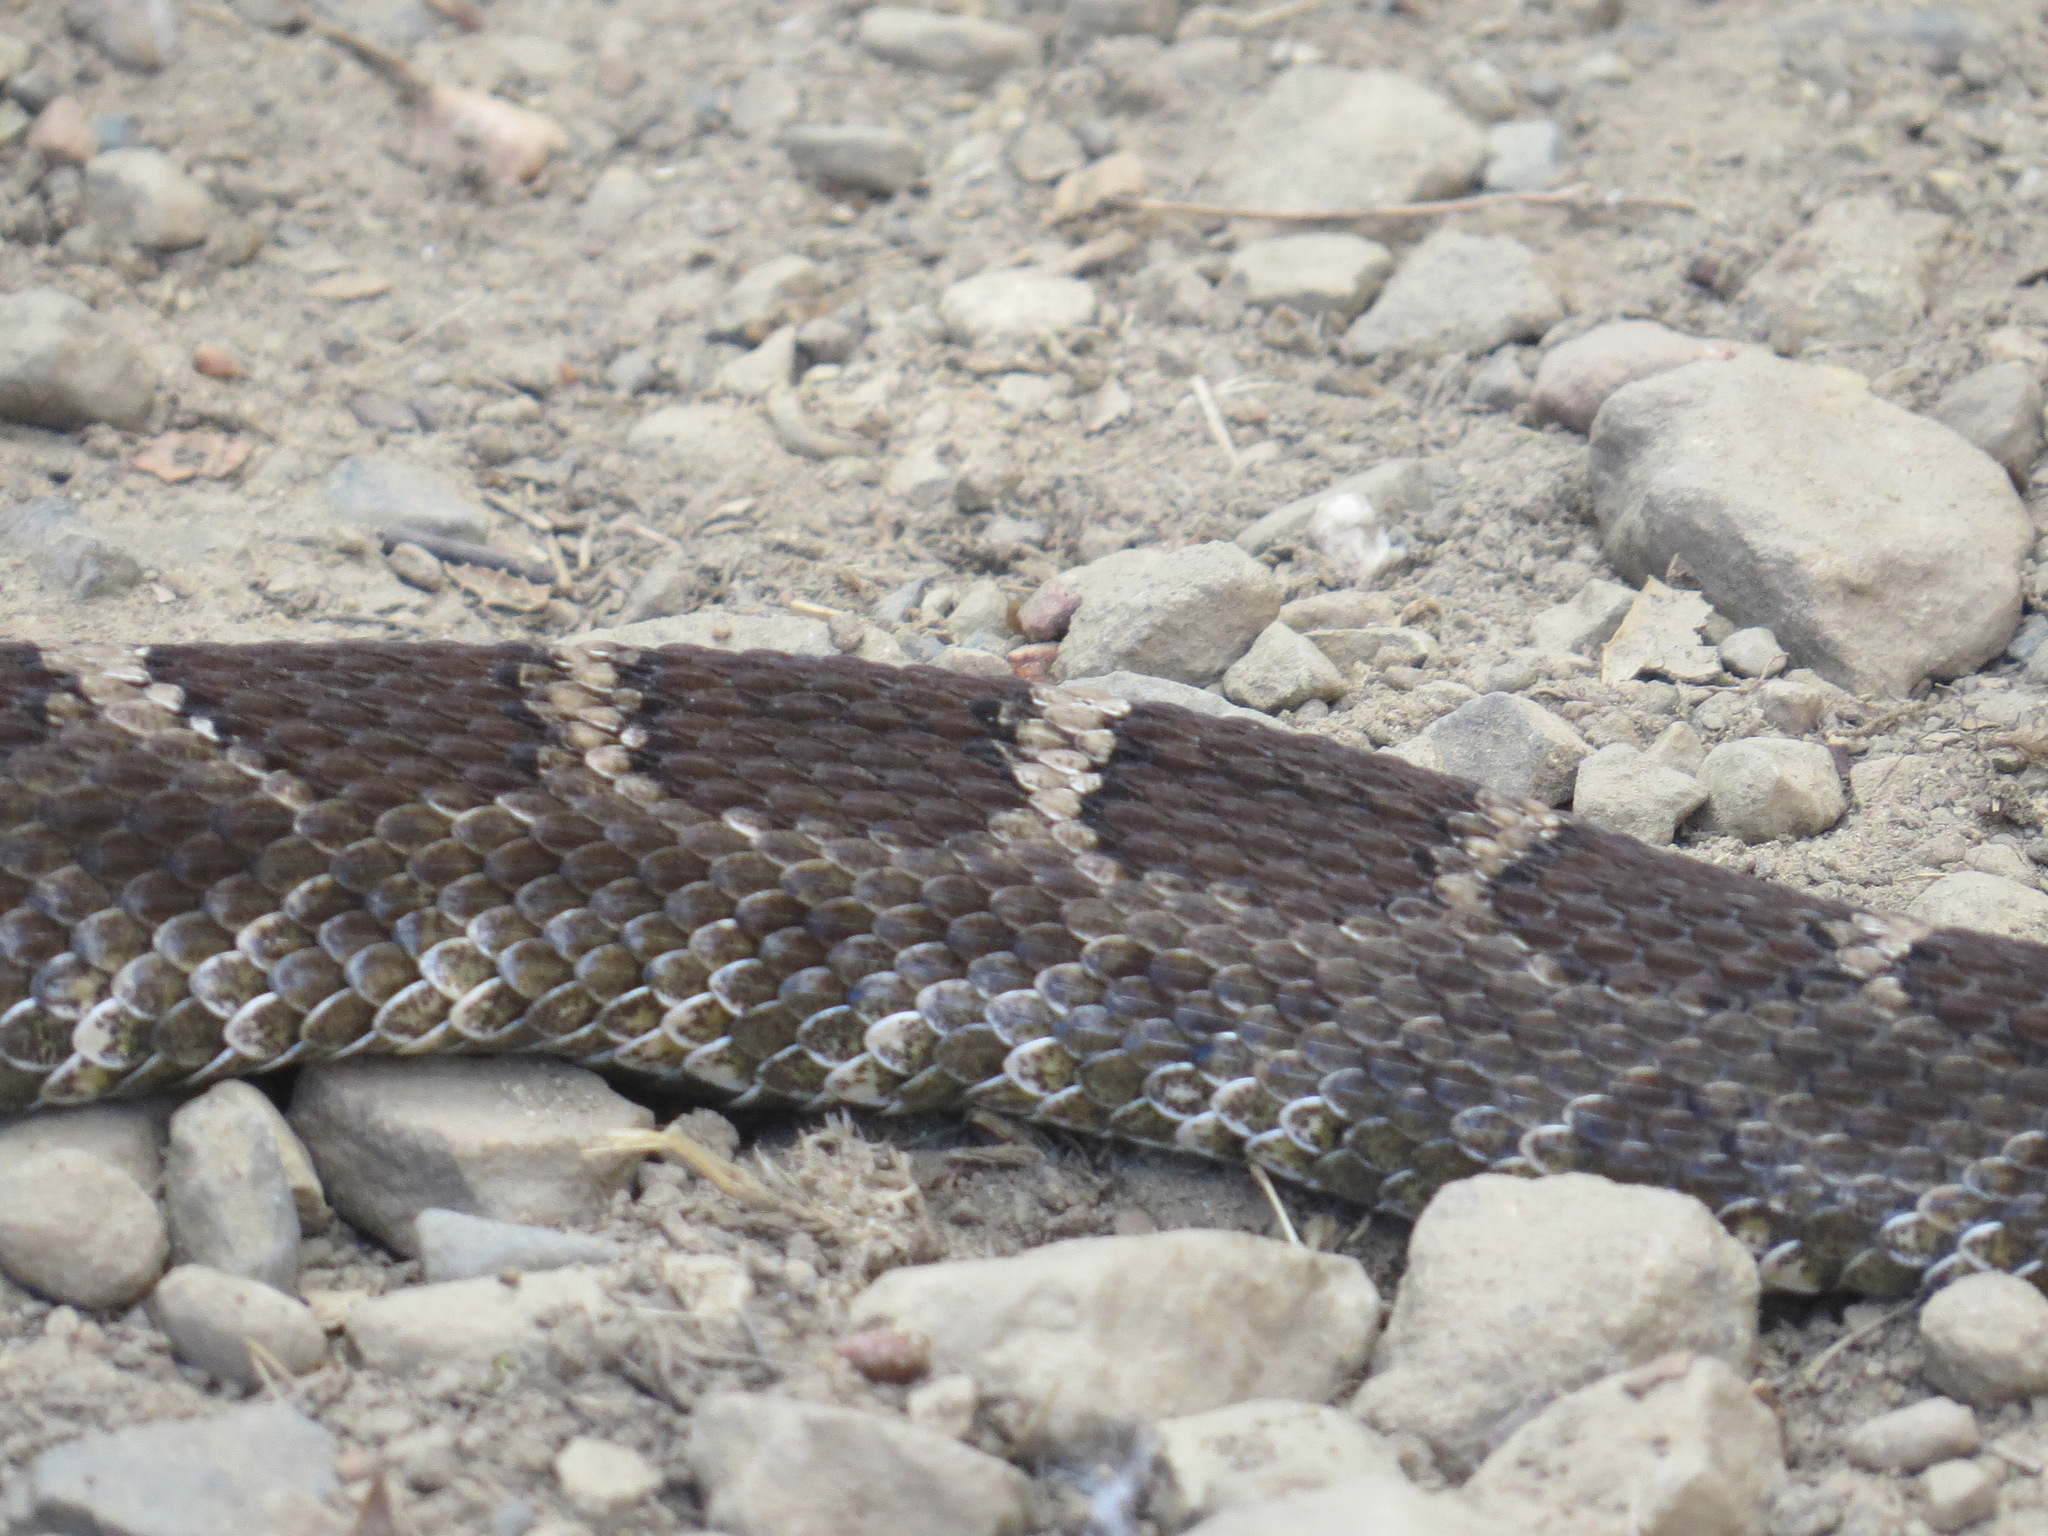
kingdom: Animalia
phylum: Chordata
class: Squamata
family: Viperidae
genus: Crotalus
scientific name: Crotalus oreganus
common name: Abyssus
